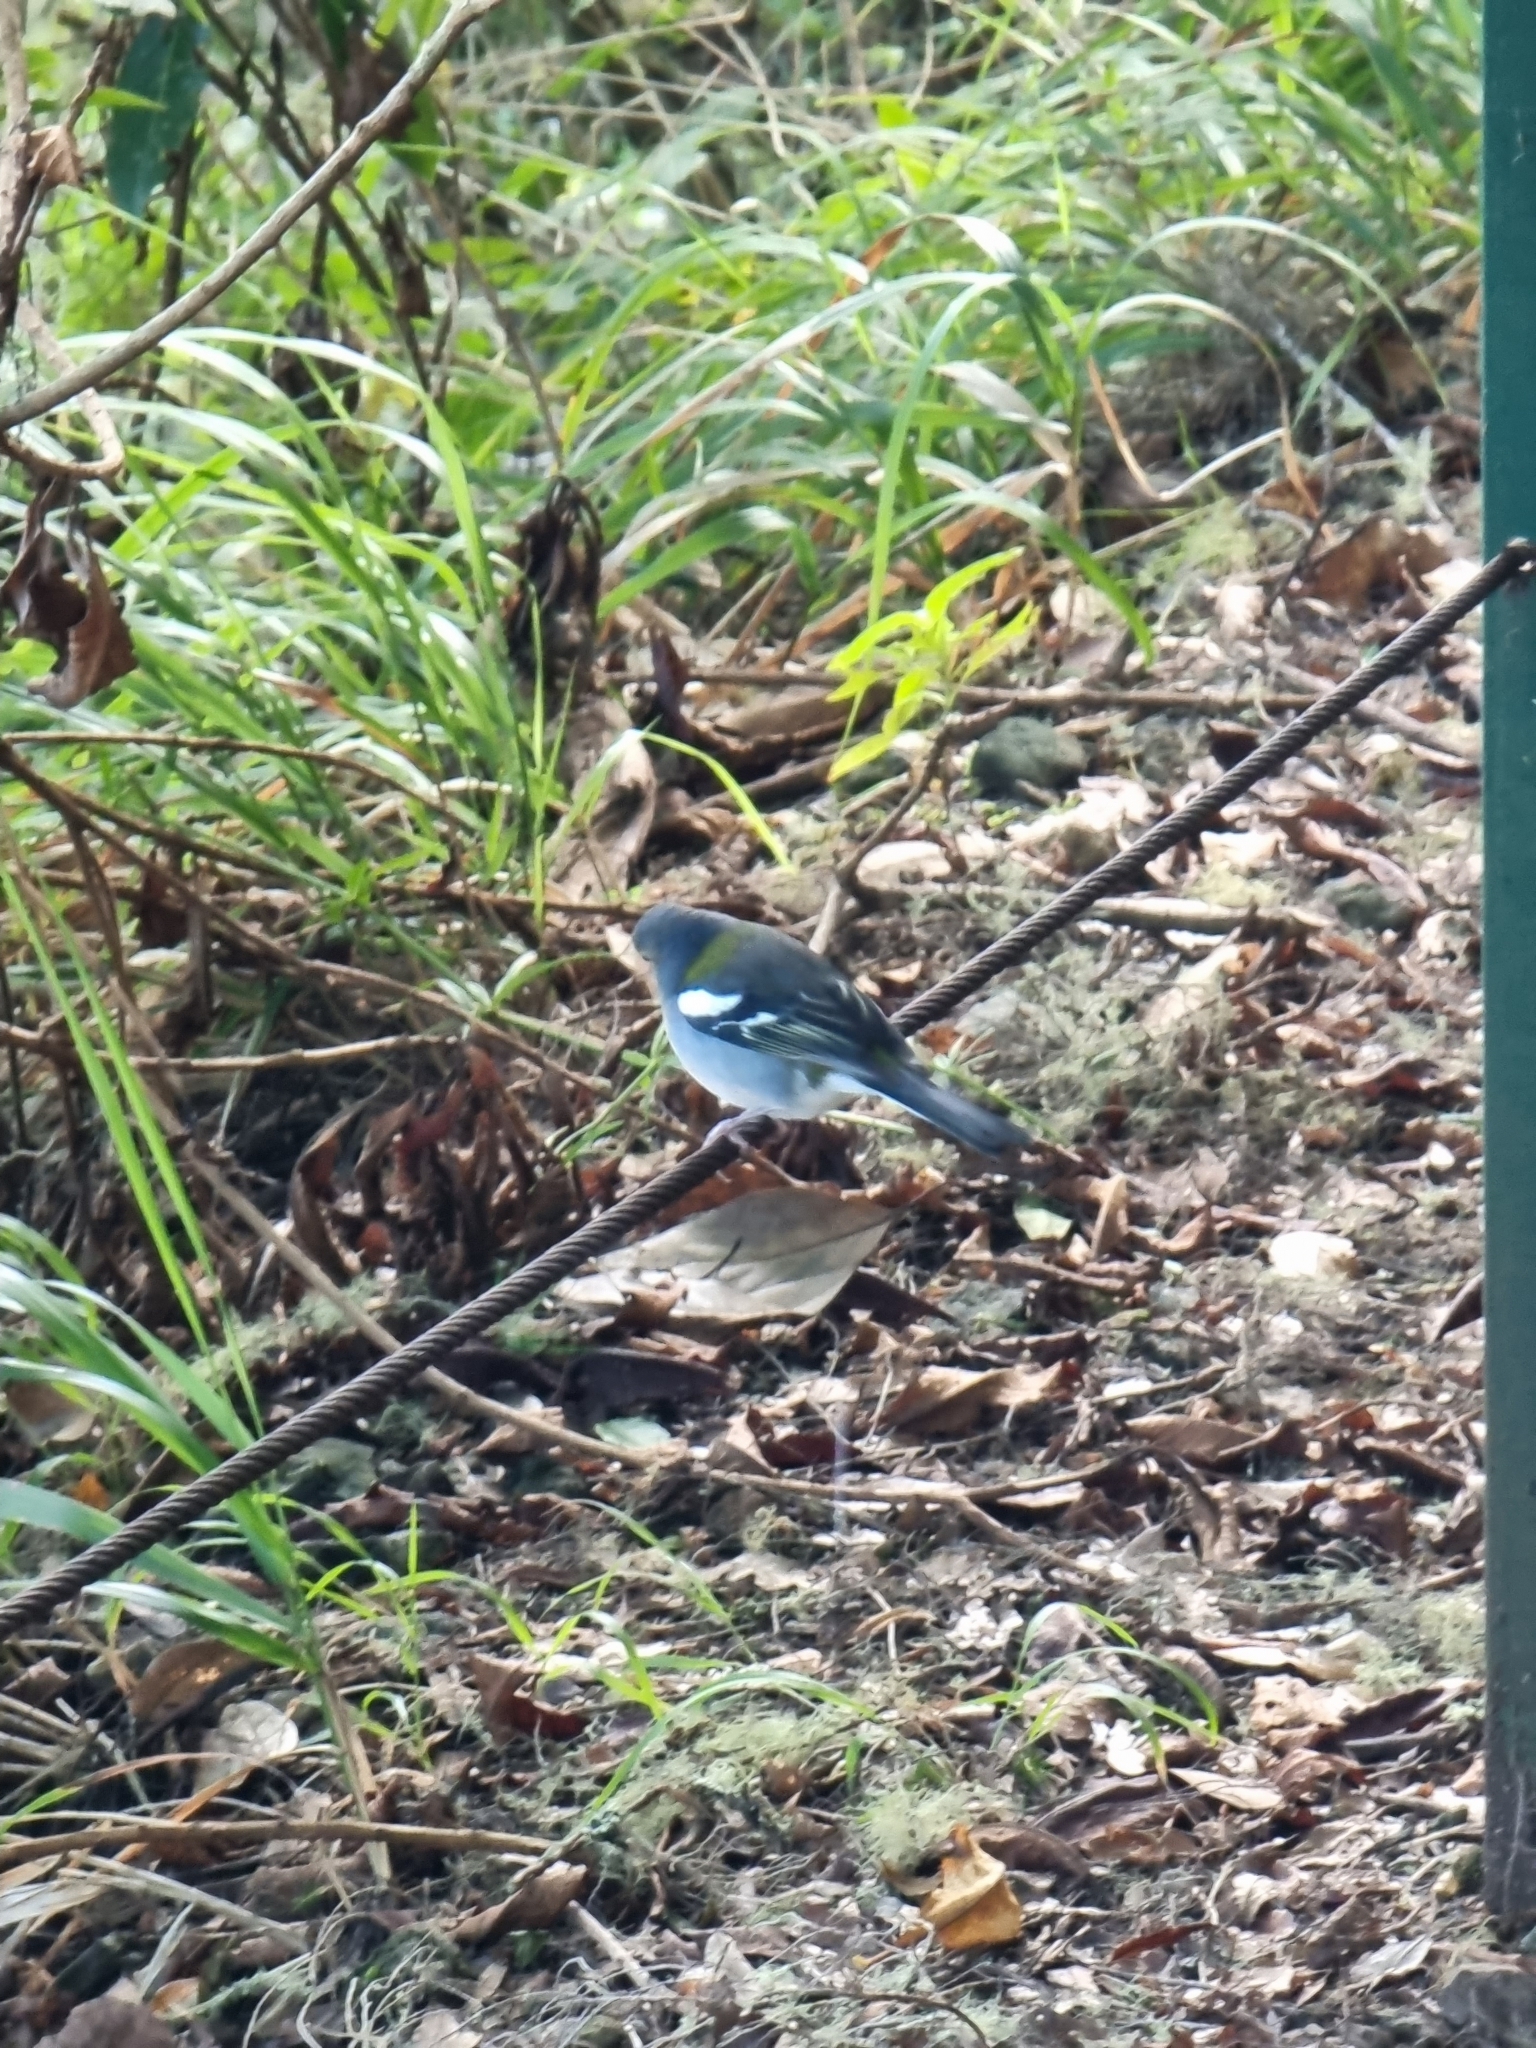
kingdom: Animalia
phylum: Chordata
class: Aves
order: Passeriformes
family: Fringillidae
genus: Fringilla
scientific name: Fringilla maderensis
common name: Madeira chaffinch
